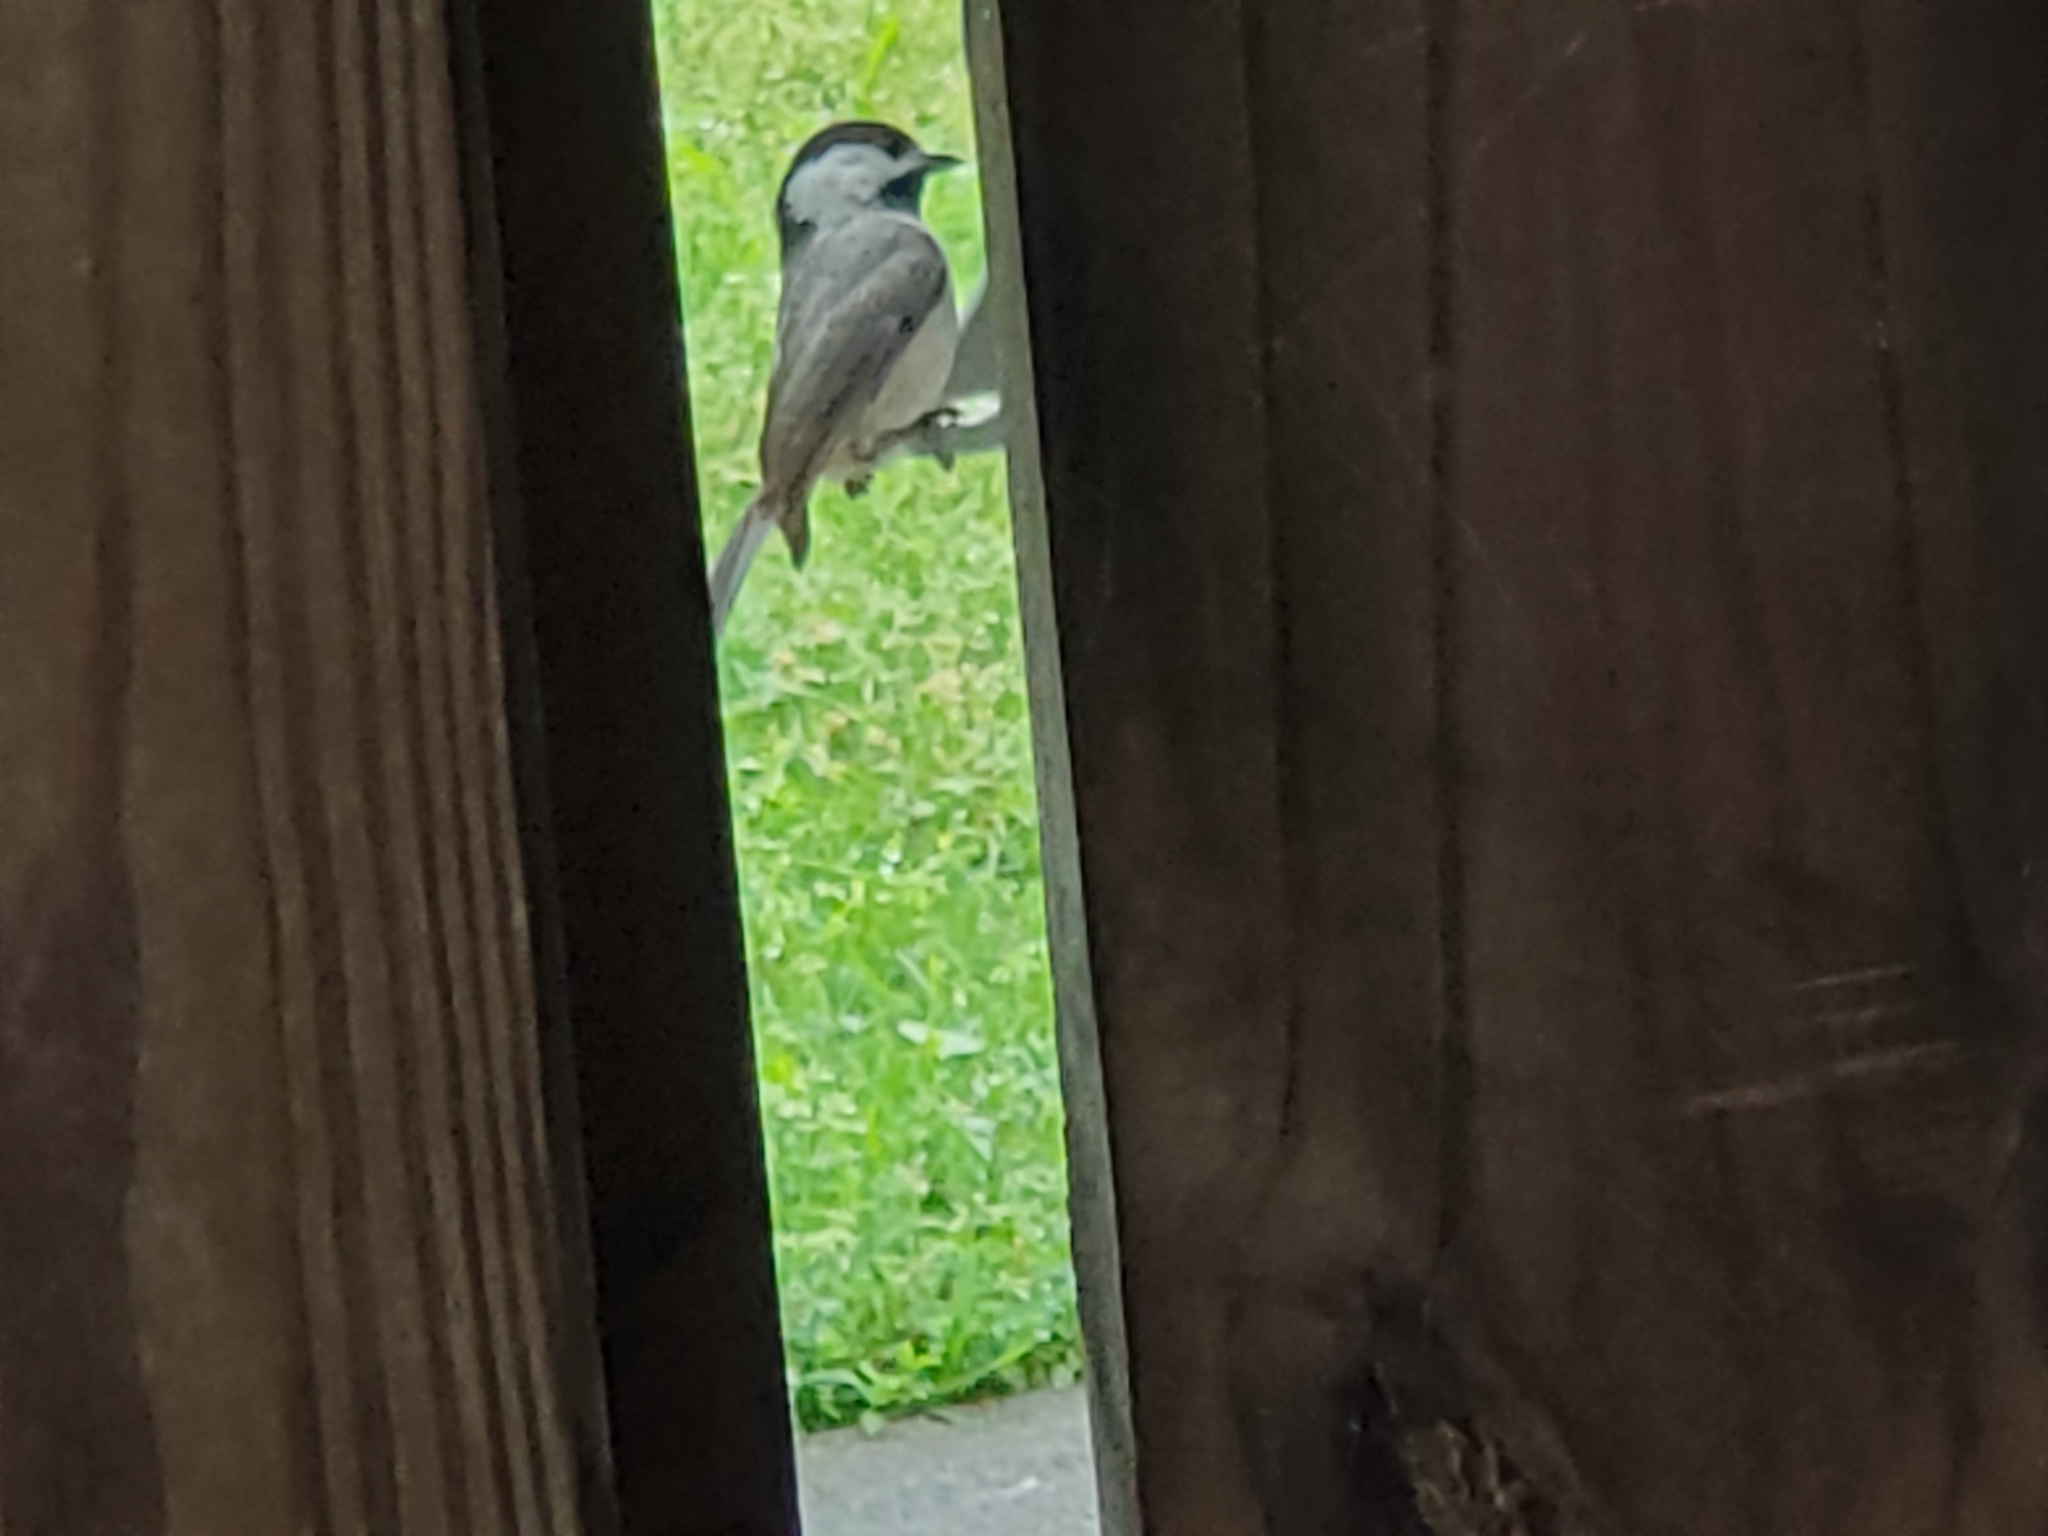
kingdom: Animalia
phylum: Chordata
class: Aves
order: Passeriformes
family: Paridae
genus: Poecile
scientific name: Poecile carolinensis
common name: Carolina chickadee
